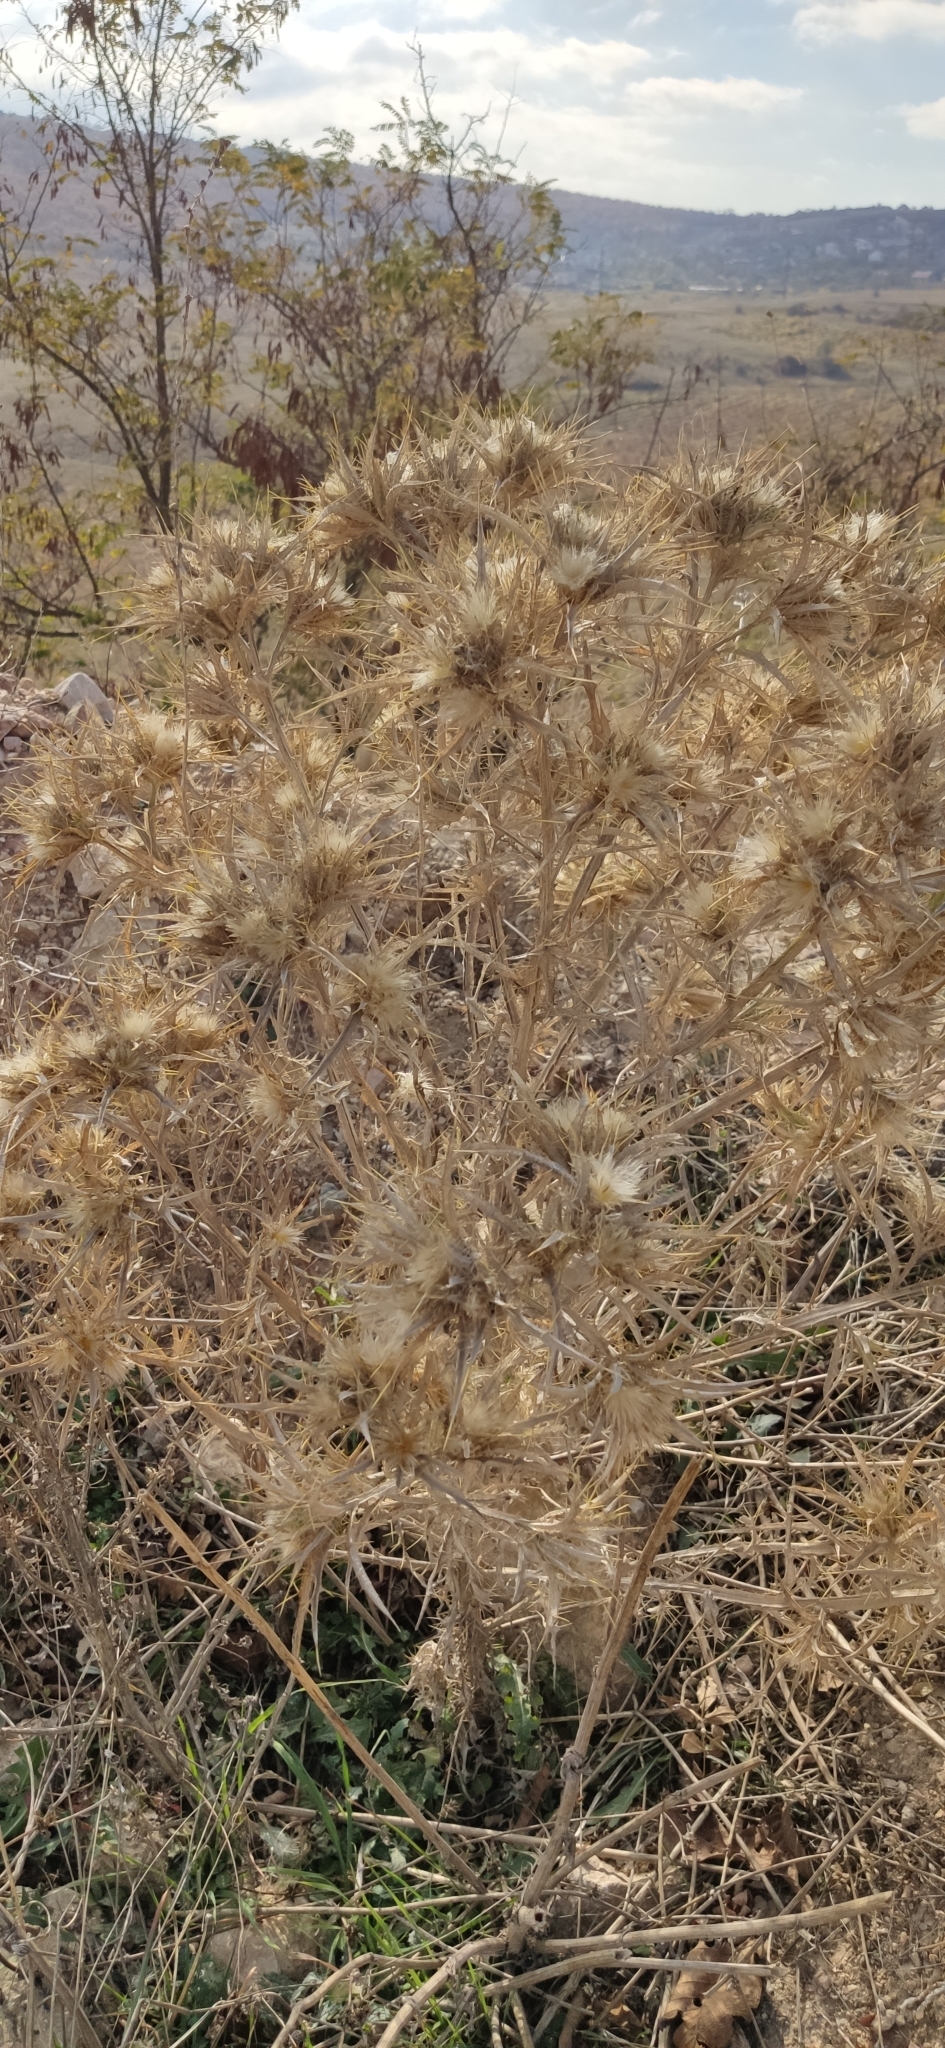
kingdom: Plantae
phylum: Tracheophyta
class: Magnoliopsida
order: Asterales
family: Asteraceae
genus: Picnomon
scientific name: Picnomon acarna
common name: Soldier thistle
